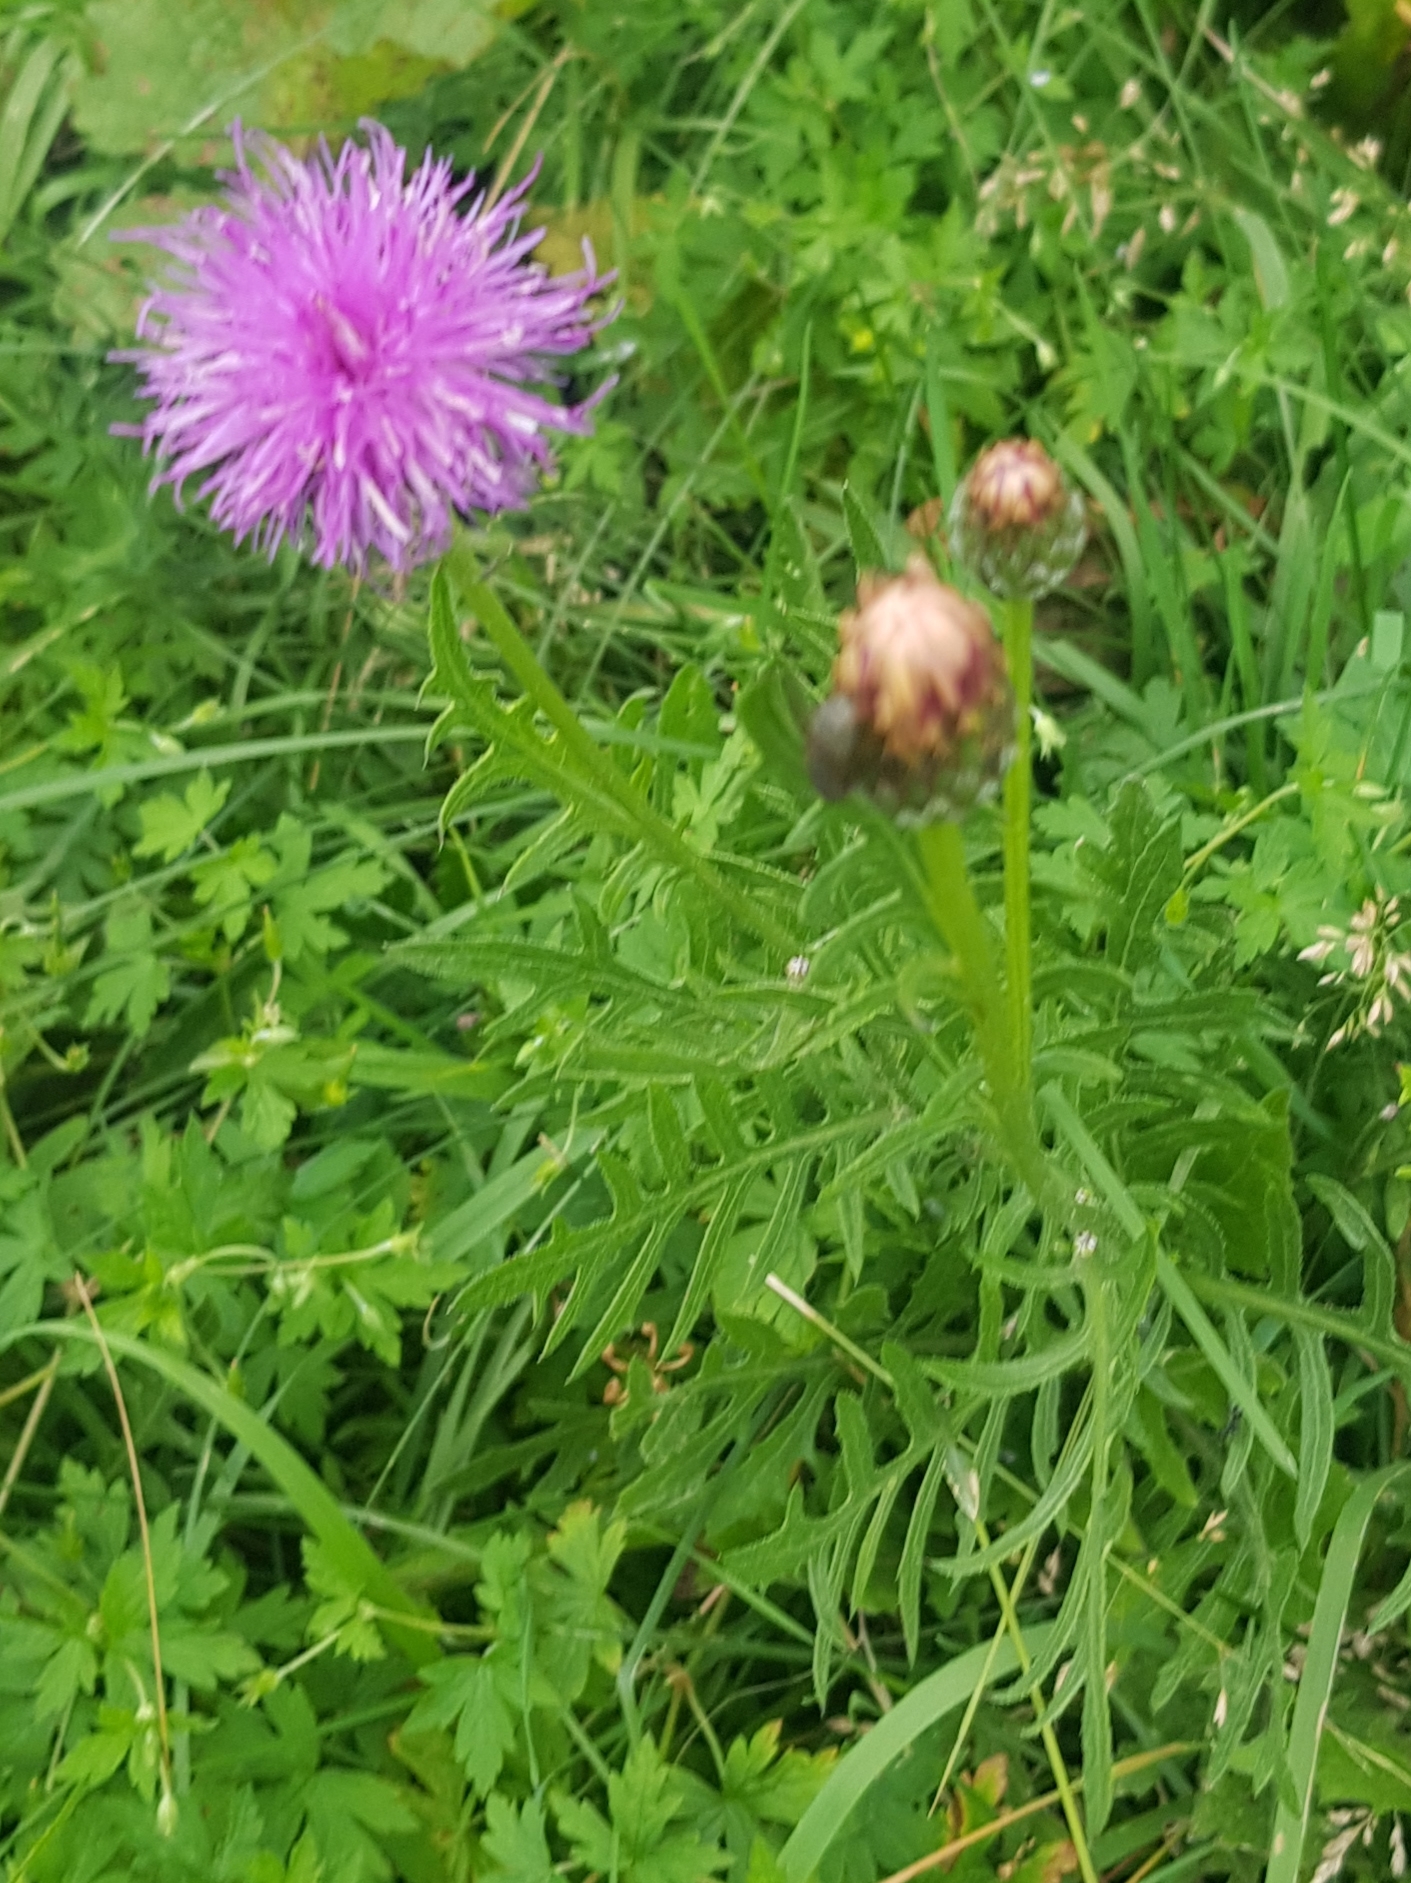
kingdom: Plantae
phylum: Tracheophyta
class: Magnoliopsida
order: Asterales
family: Asteraceae
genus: Klasea
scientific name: Klasea centauroides
